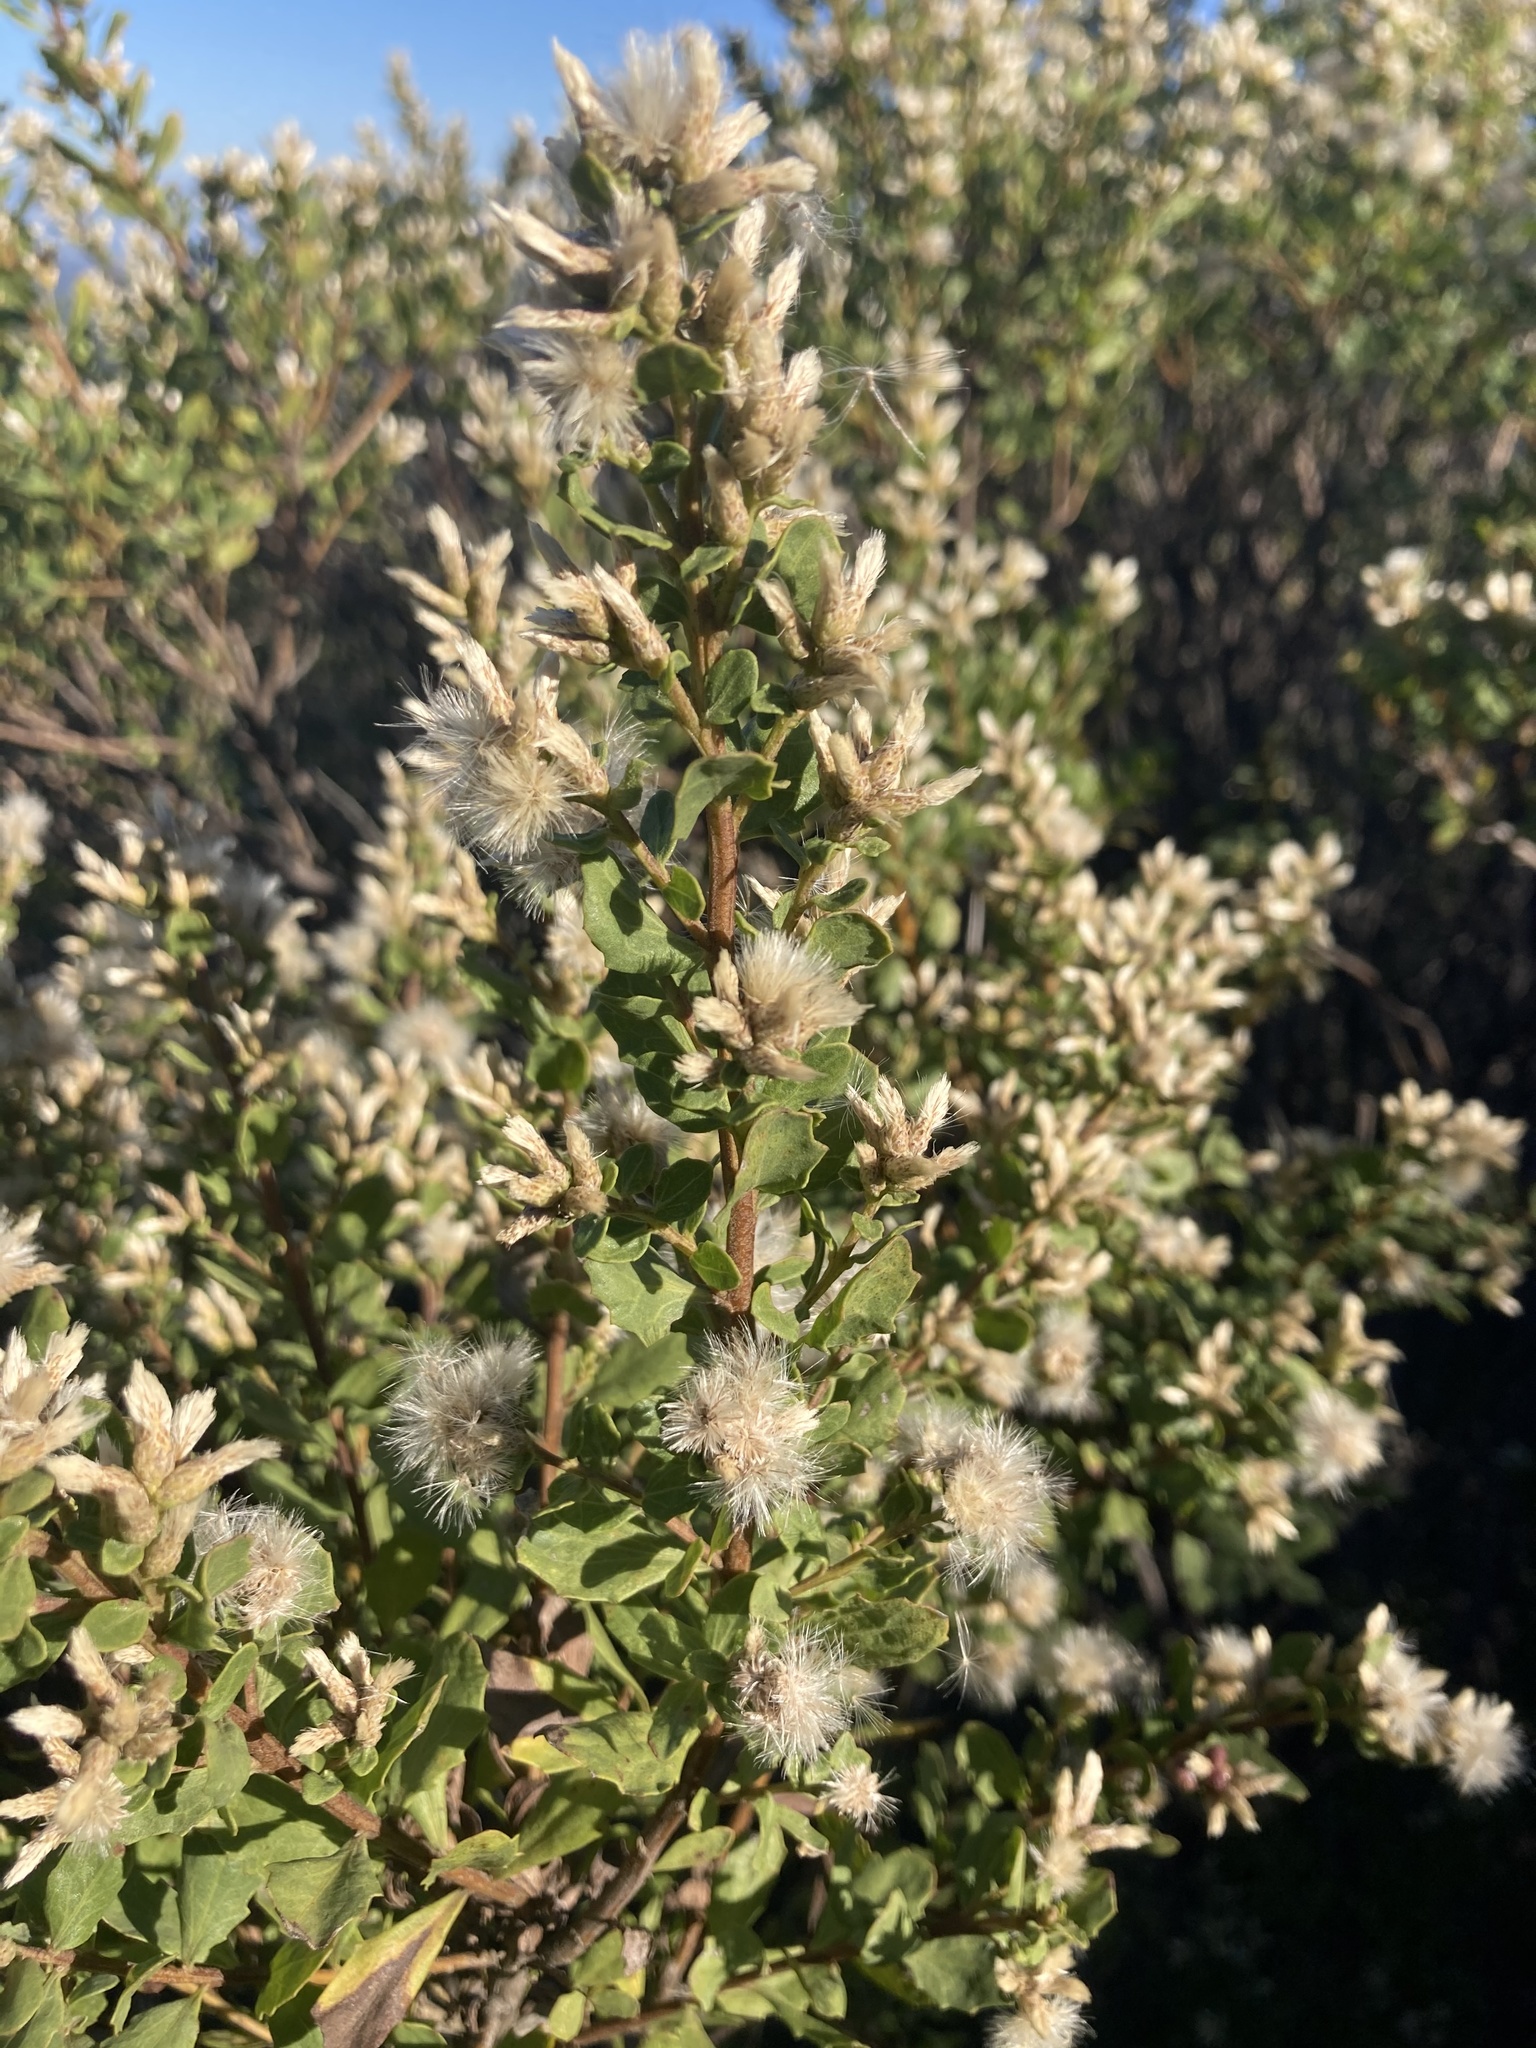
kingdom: Plantae
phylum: Tracheophyta
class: Magnoliopsida
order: Asterales
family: Asteraceae
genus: Baccharis
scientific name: Baccharis pilularis
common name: Coyotebrush
